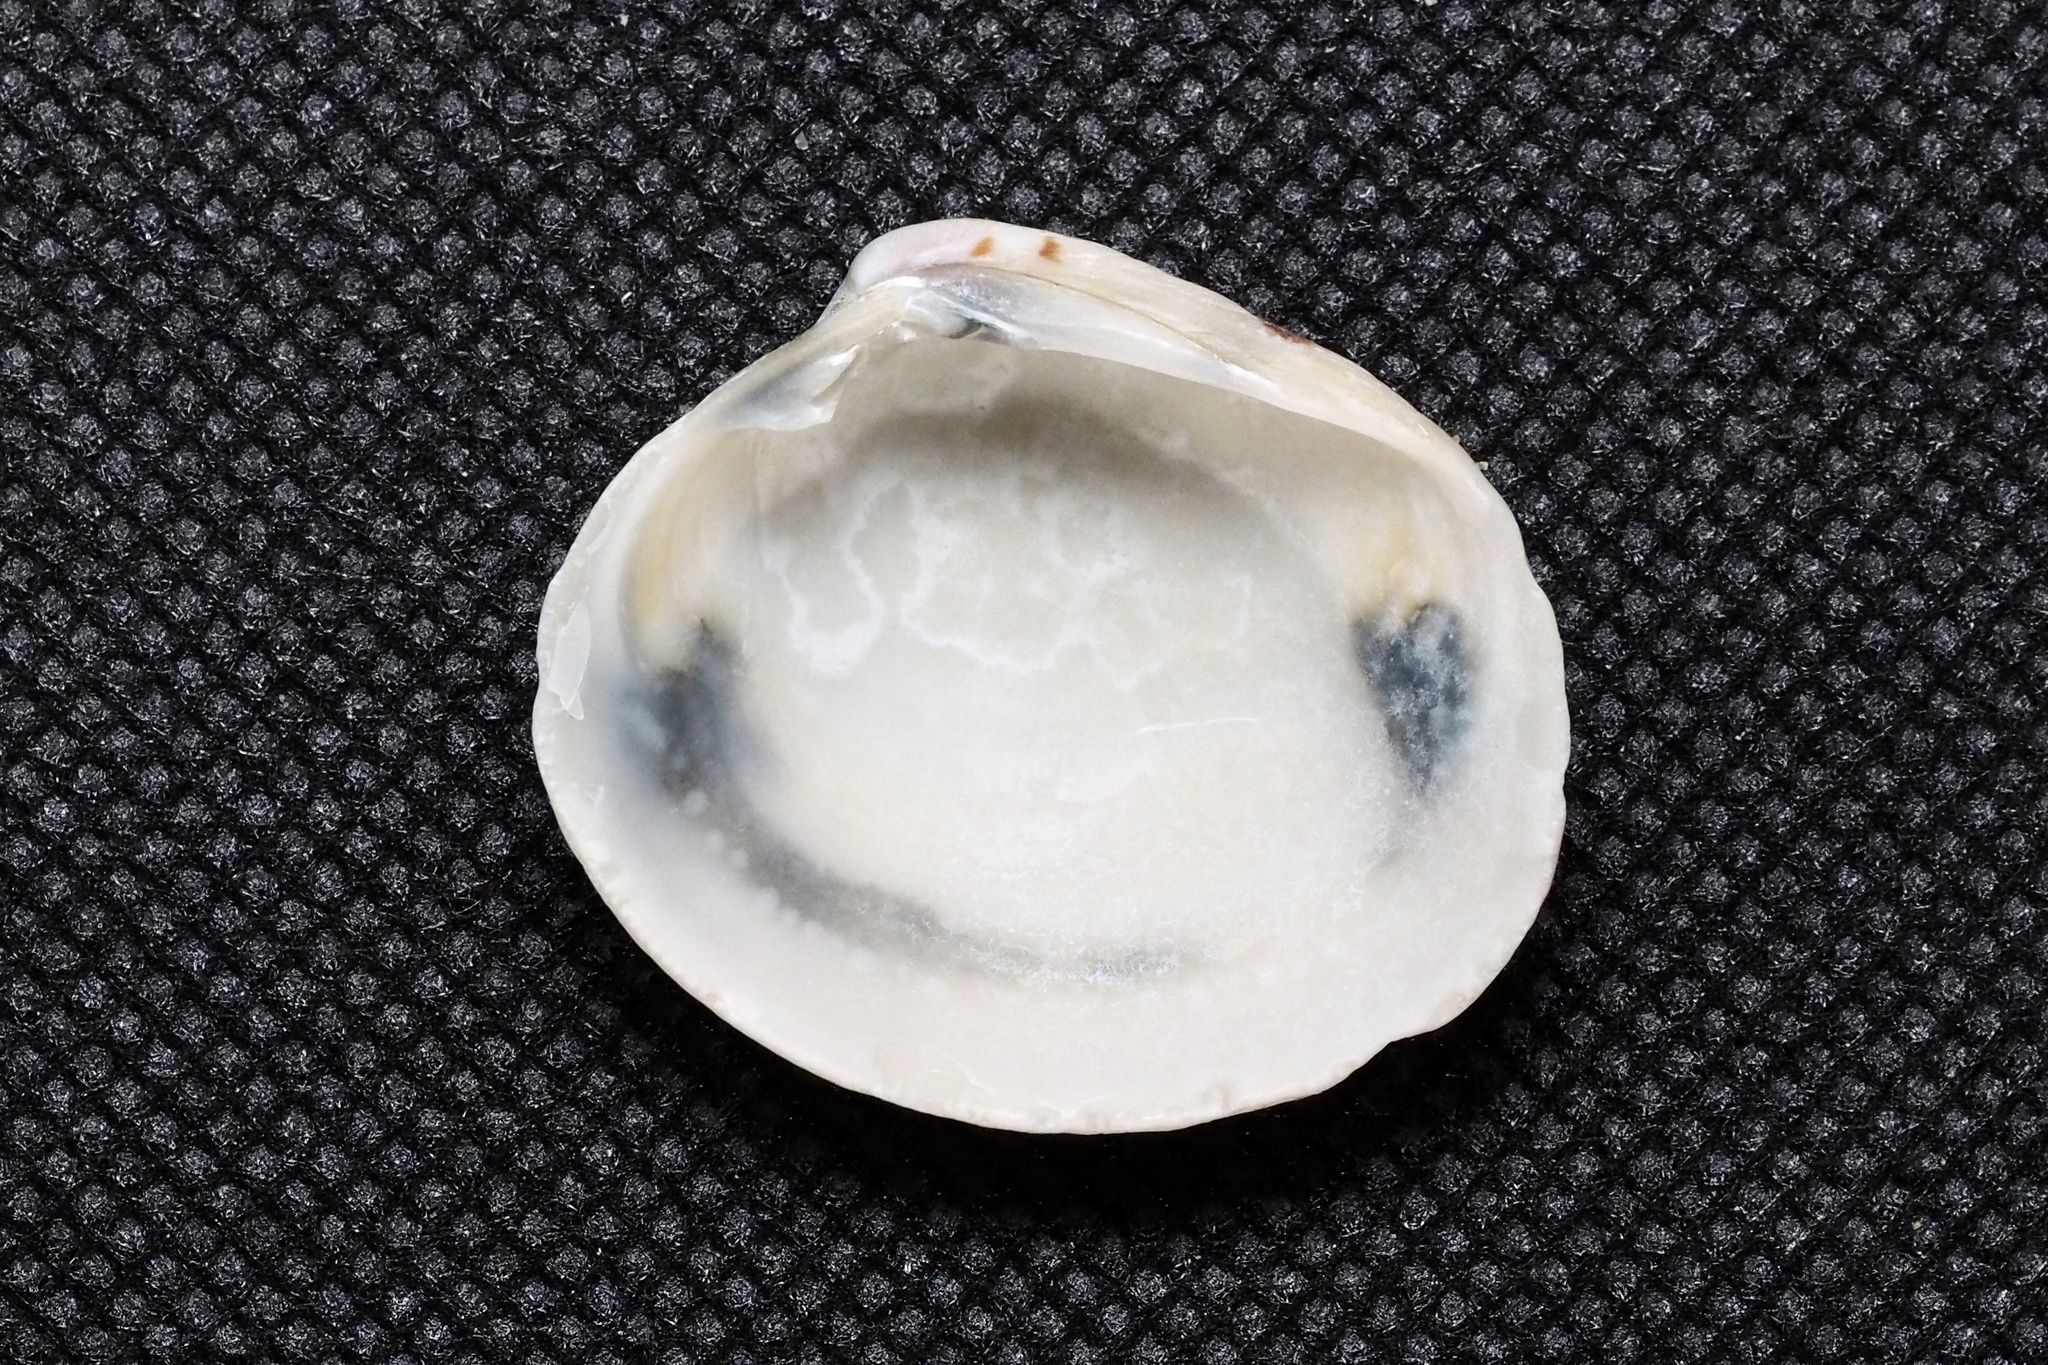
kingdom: Animalia
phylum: Mollusca
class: Bivalvia
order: Venerida
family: Veneridae
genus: Leukoma
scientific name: Leukoma jedoensis
